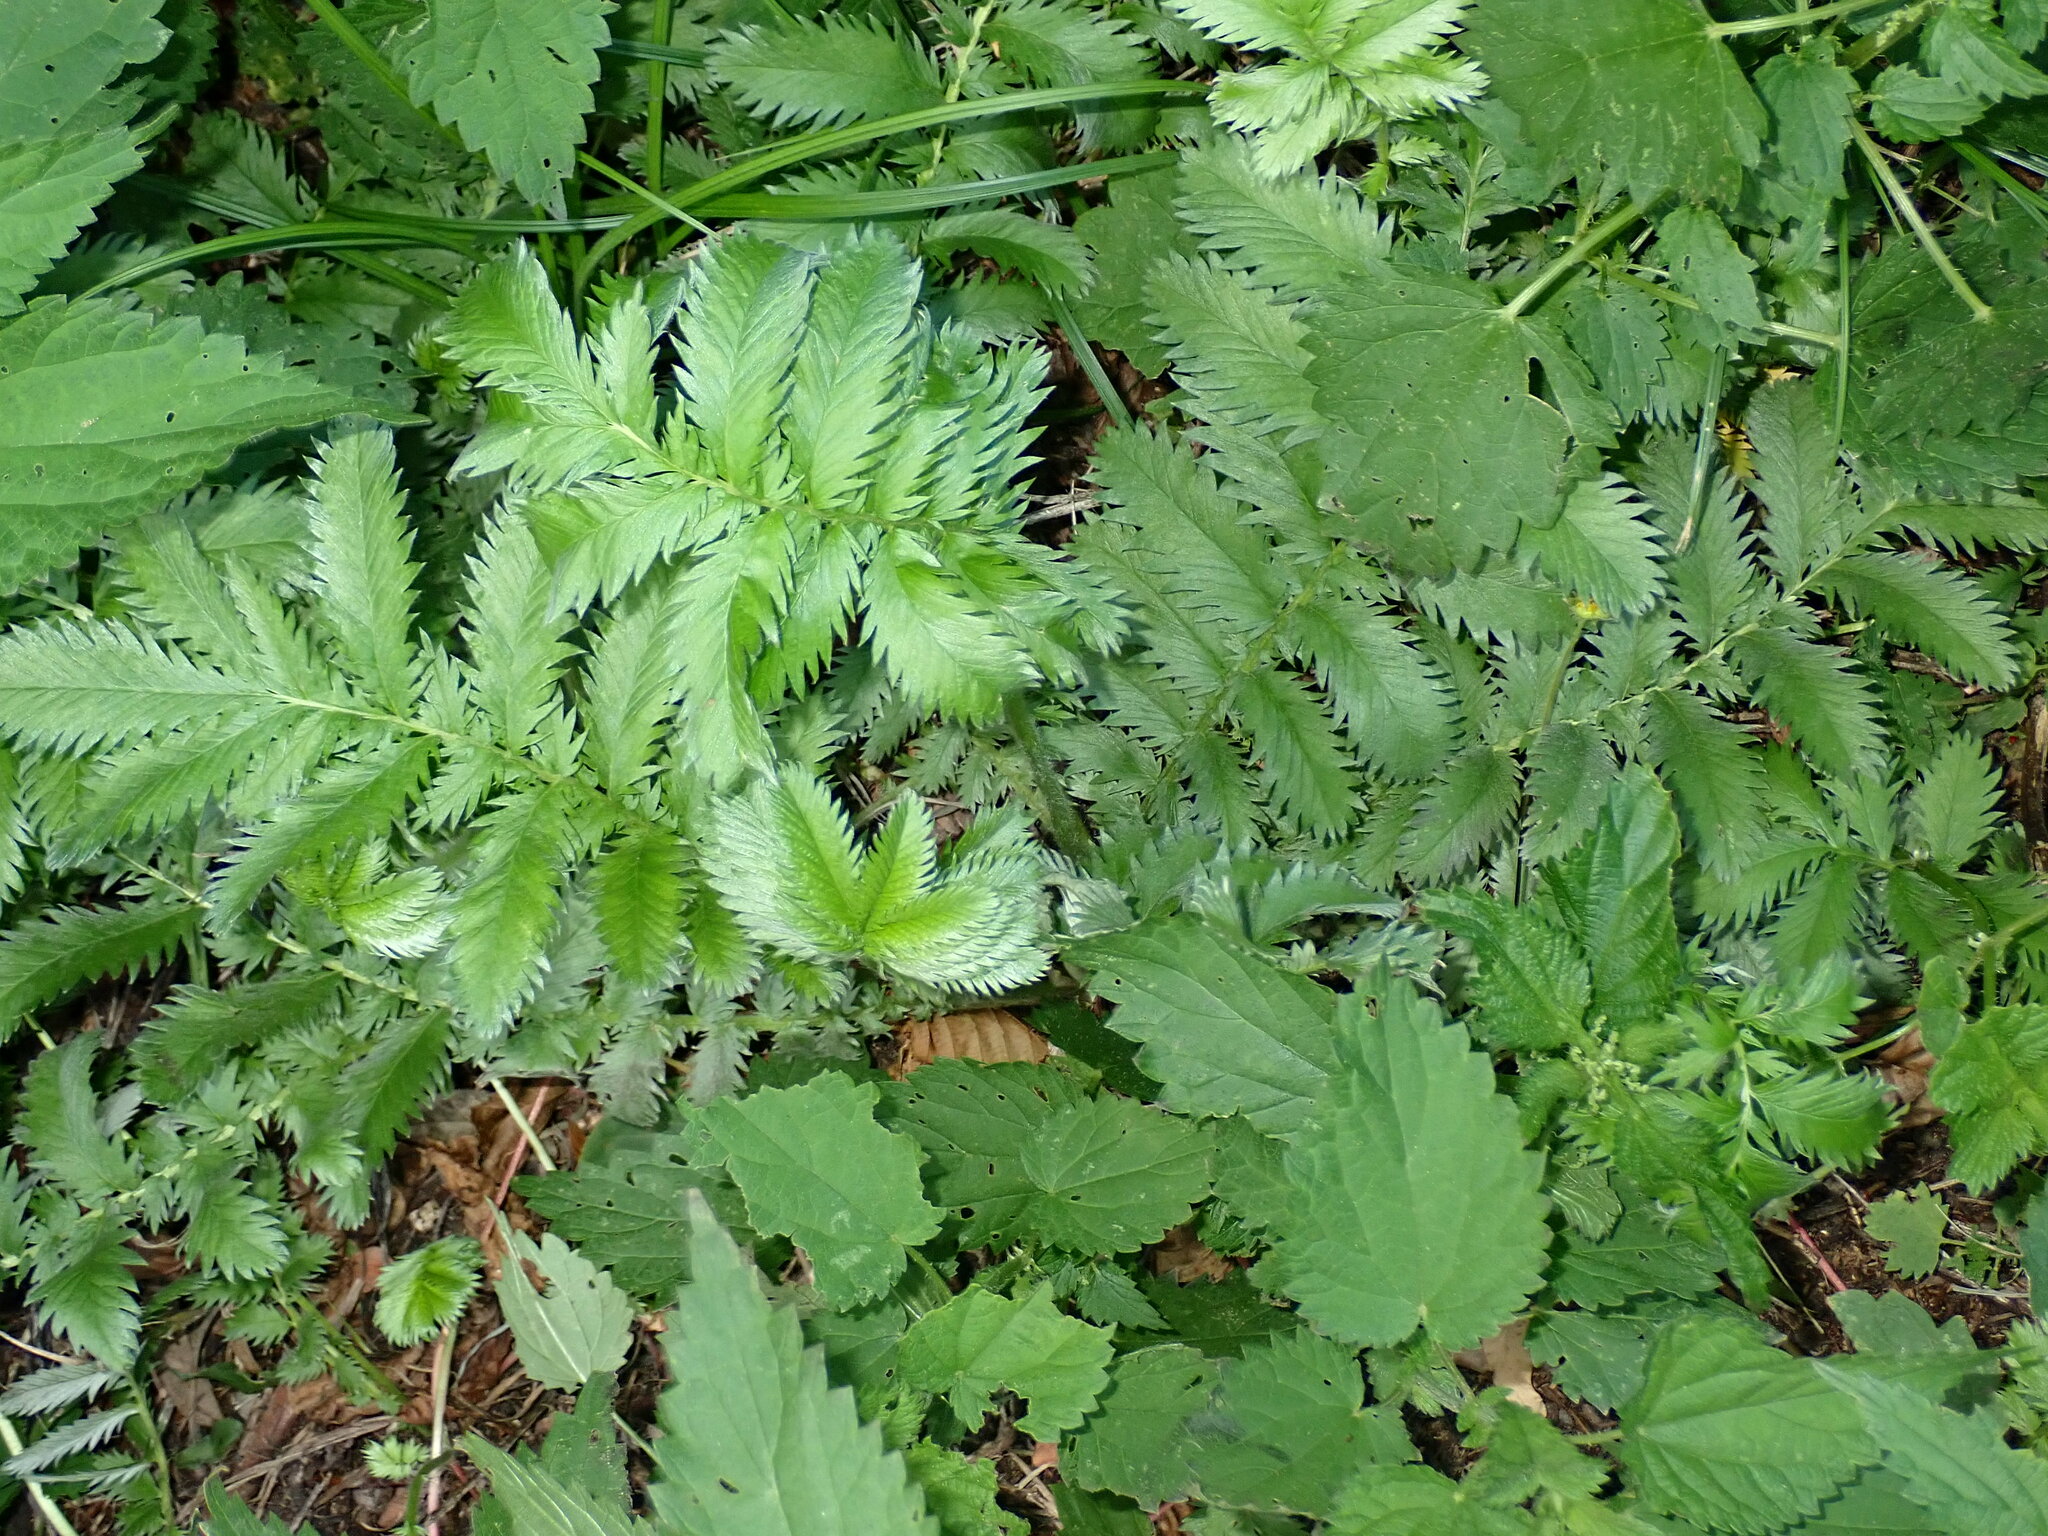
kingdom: Plantae
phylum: Tracheophyta
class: Magnoliopsida
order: Rosales
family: Rosaceae
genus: Argentina
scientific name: Argentina anserina
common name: Common silverweed
